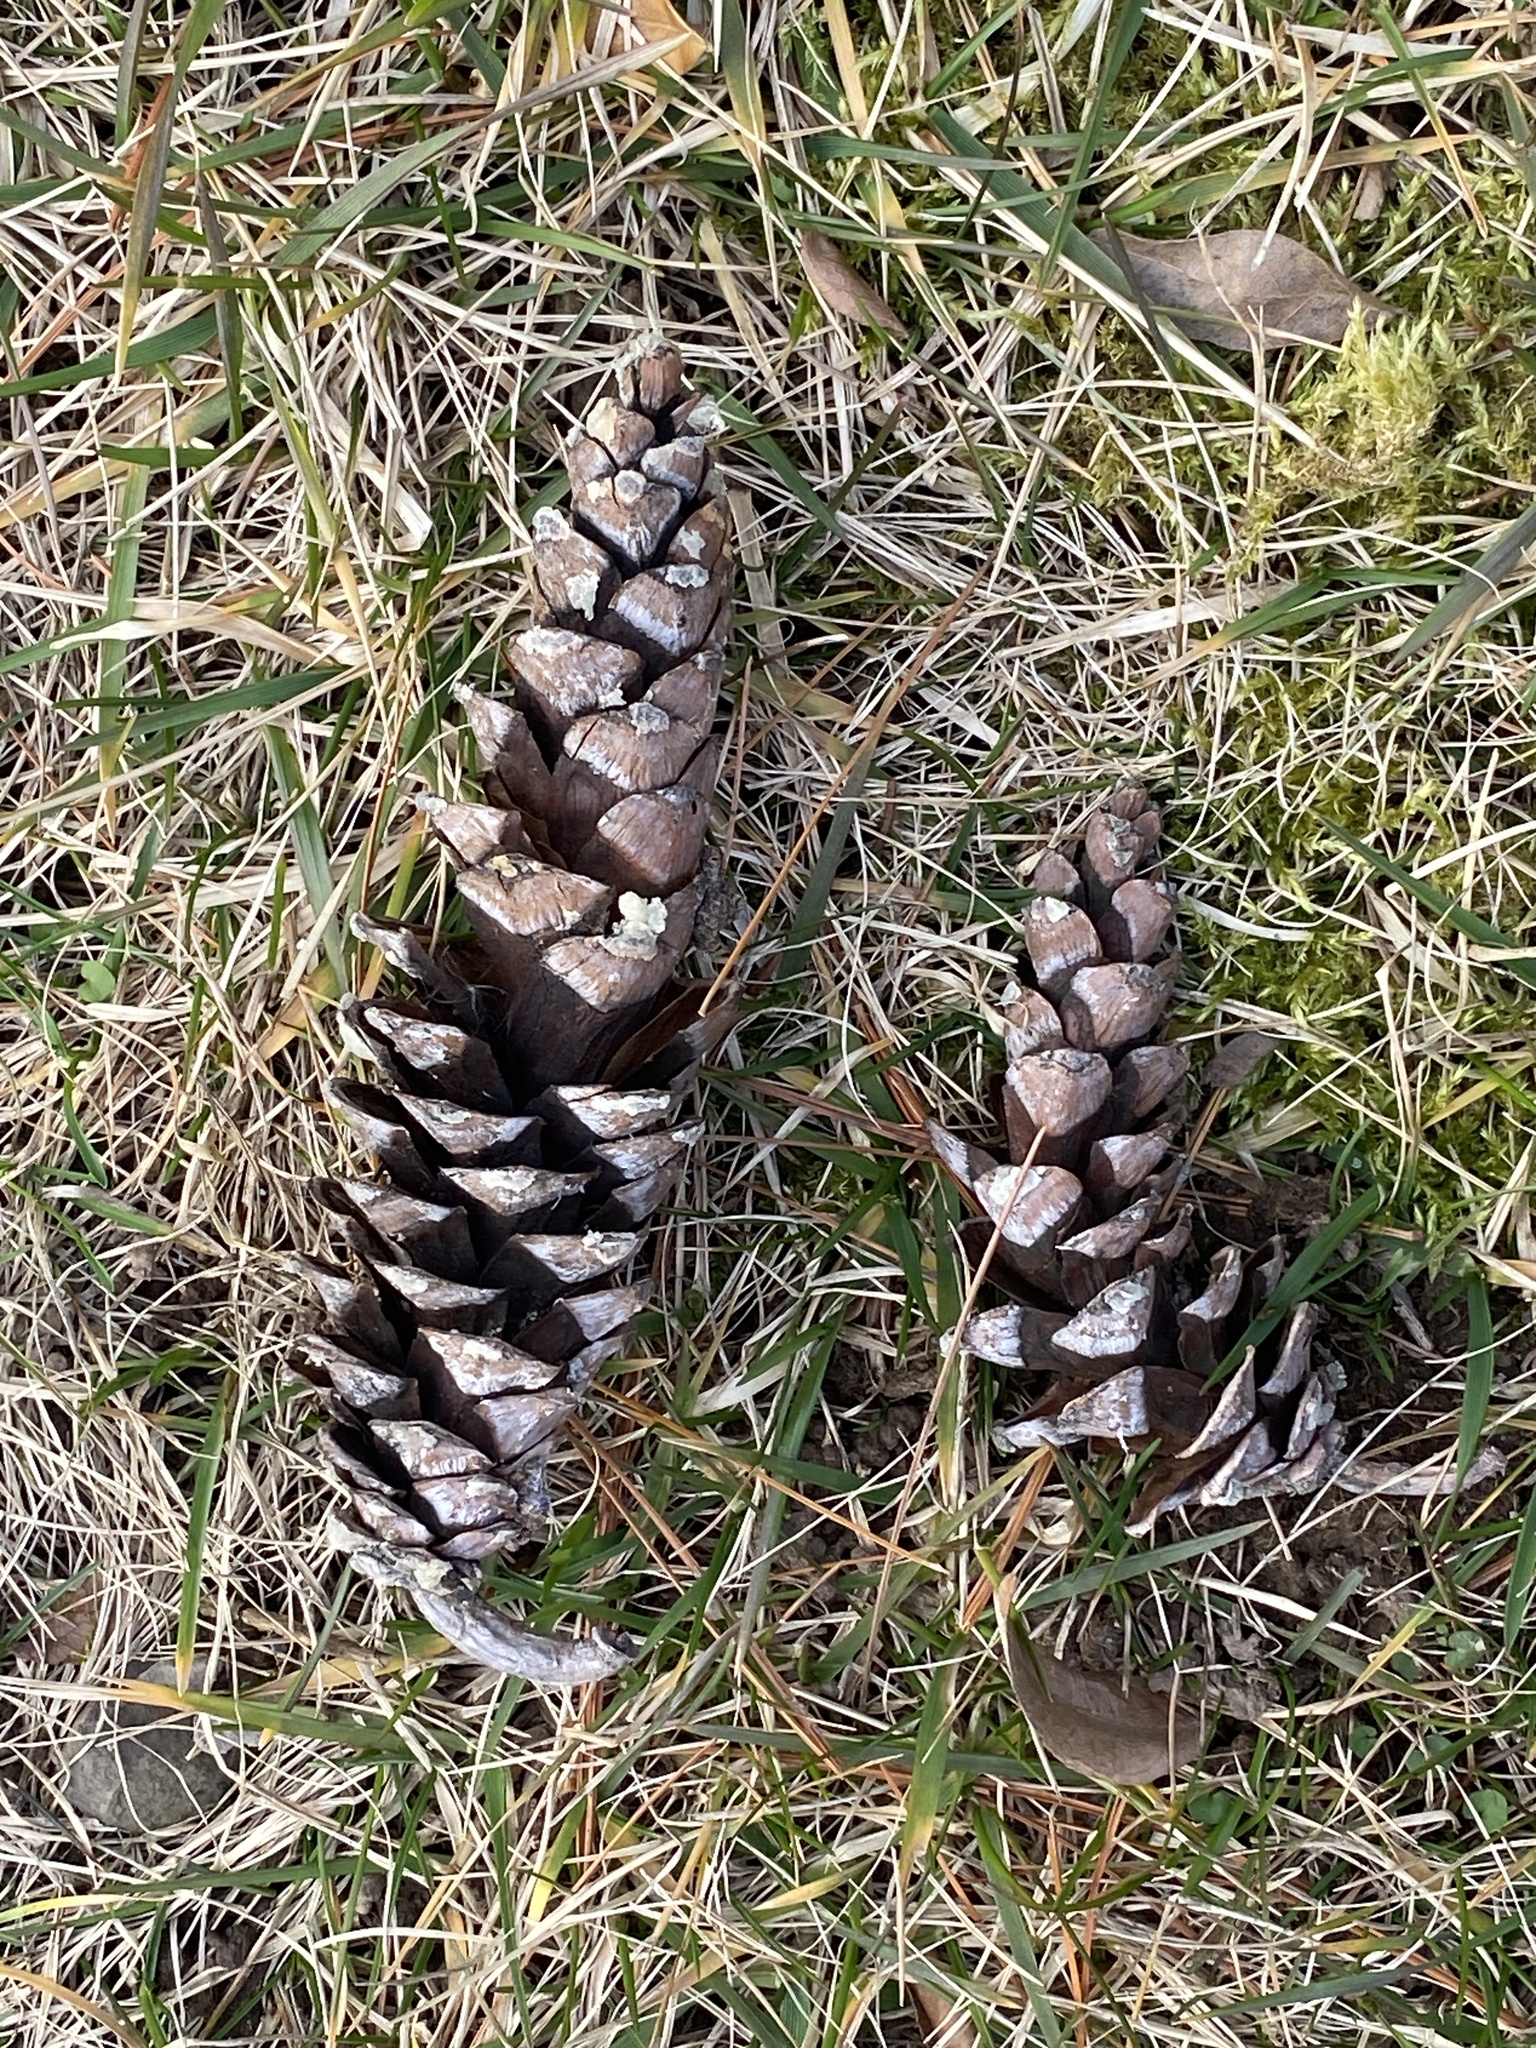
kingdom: Plantae
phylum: Tracheophyta
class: Pinopsida
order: Pinales
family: Pinaceae
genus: Pinus
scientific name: Pinus strobus
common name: Weymouth pine
